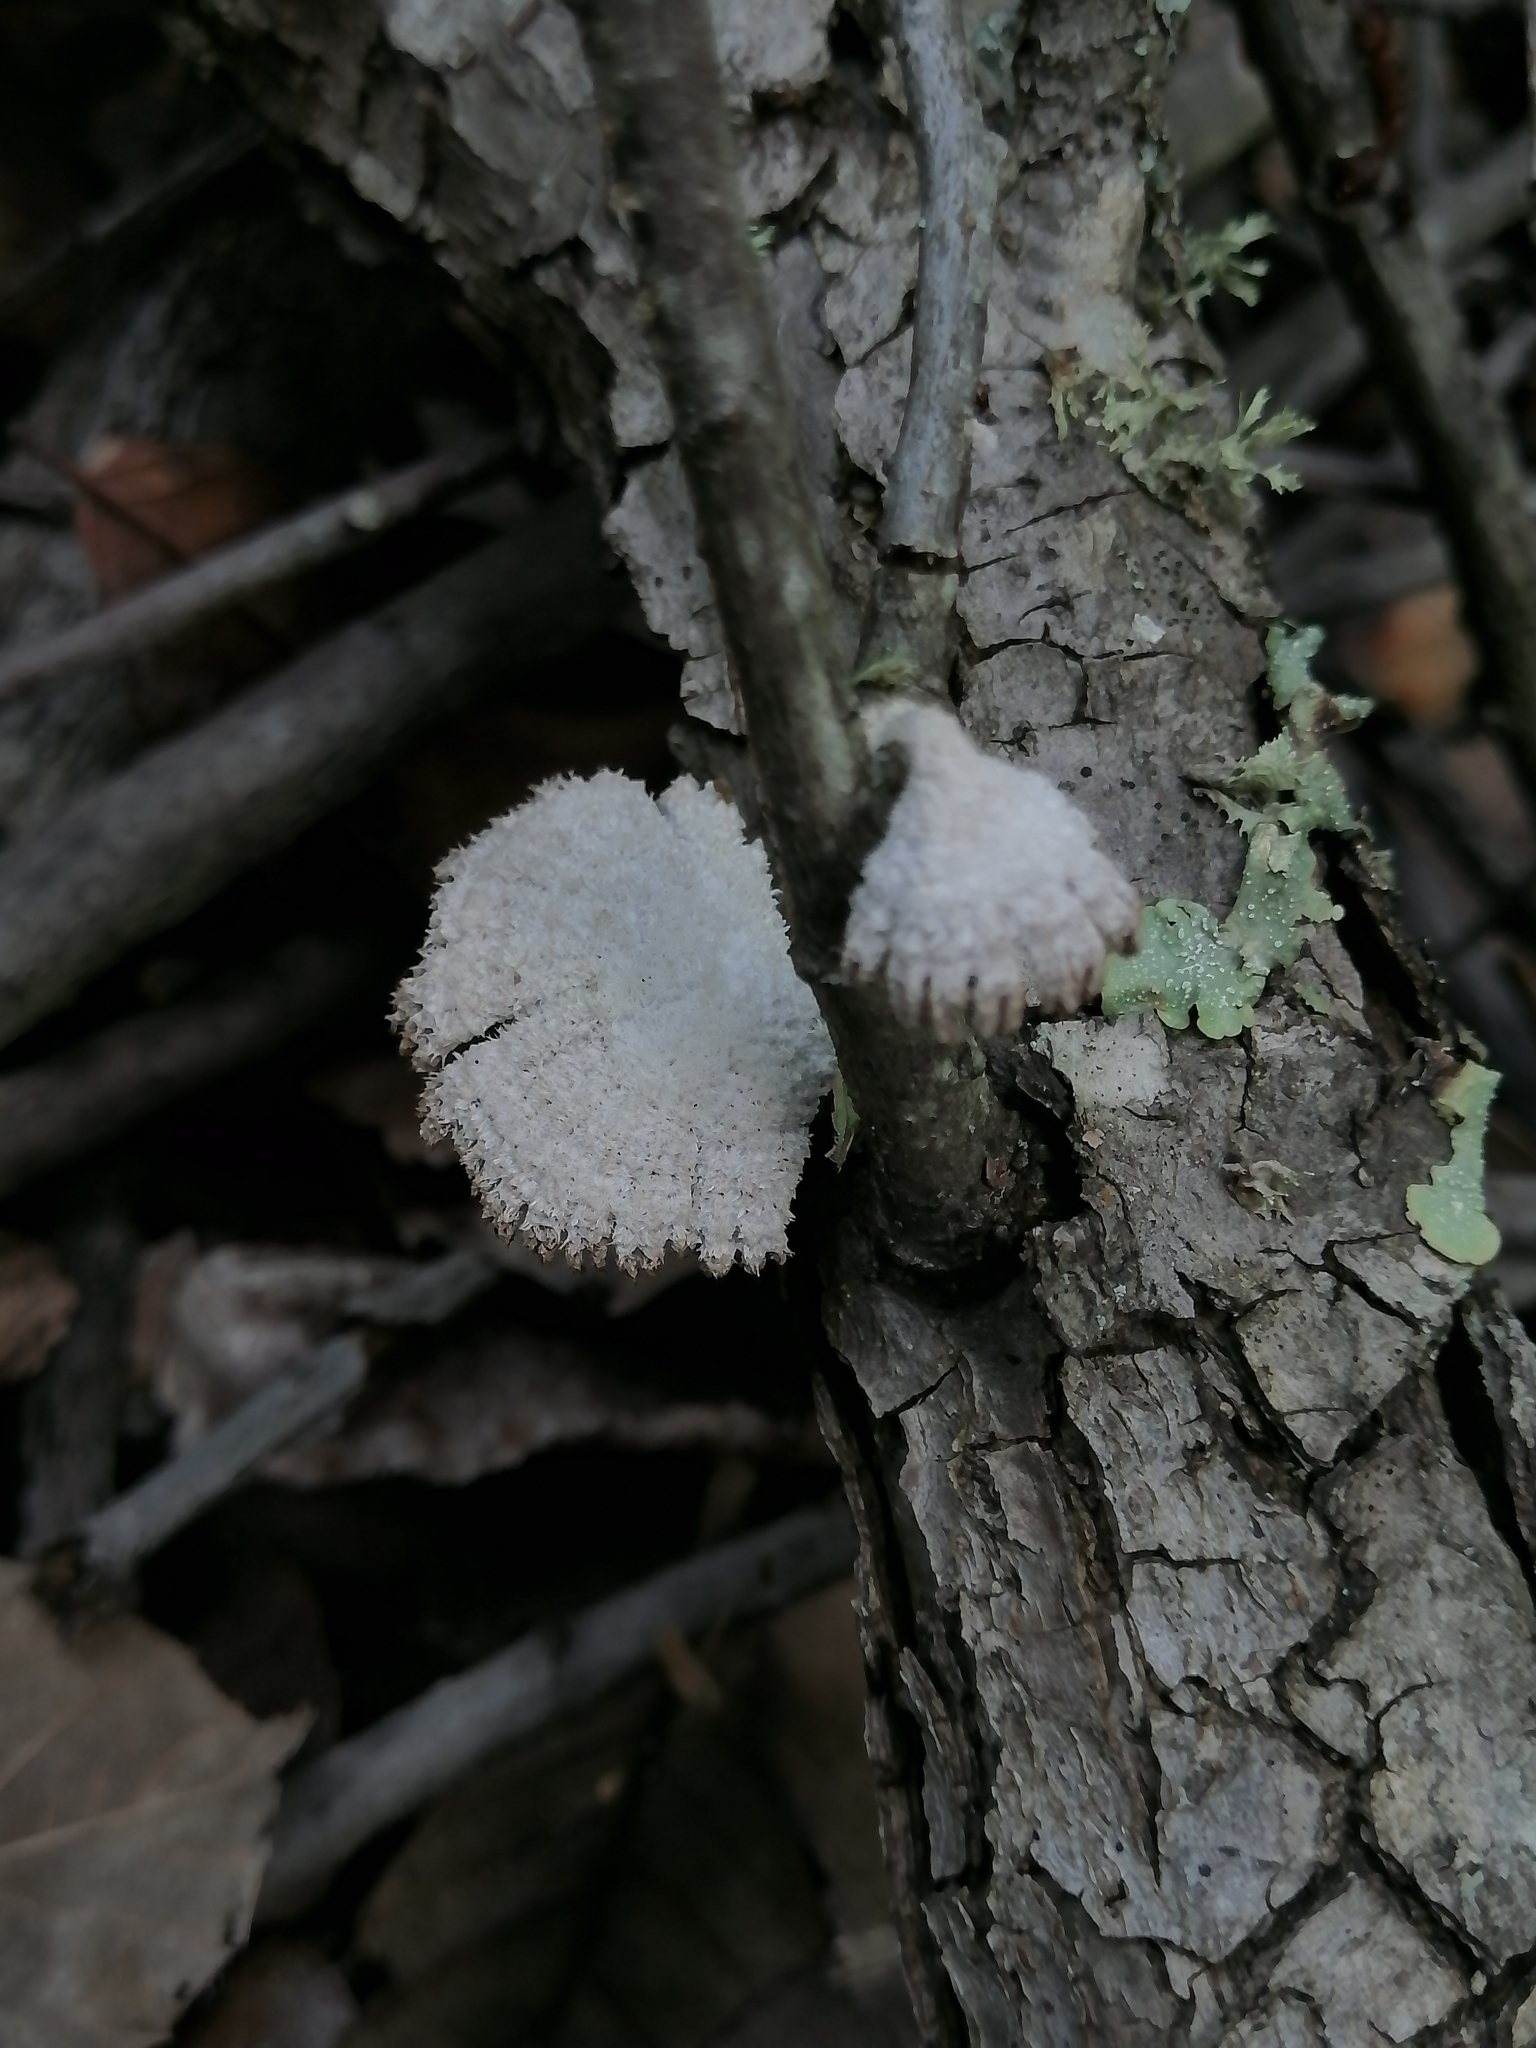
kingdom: Fungi
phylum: Basidiomycota
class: Agaricomycetes
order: Agaricales
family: Schizophyllaceae
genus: Schizophyllum
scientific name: Schizophyllum commune
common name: Common porecrust
